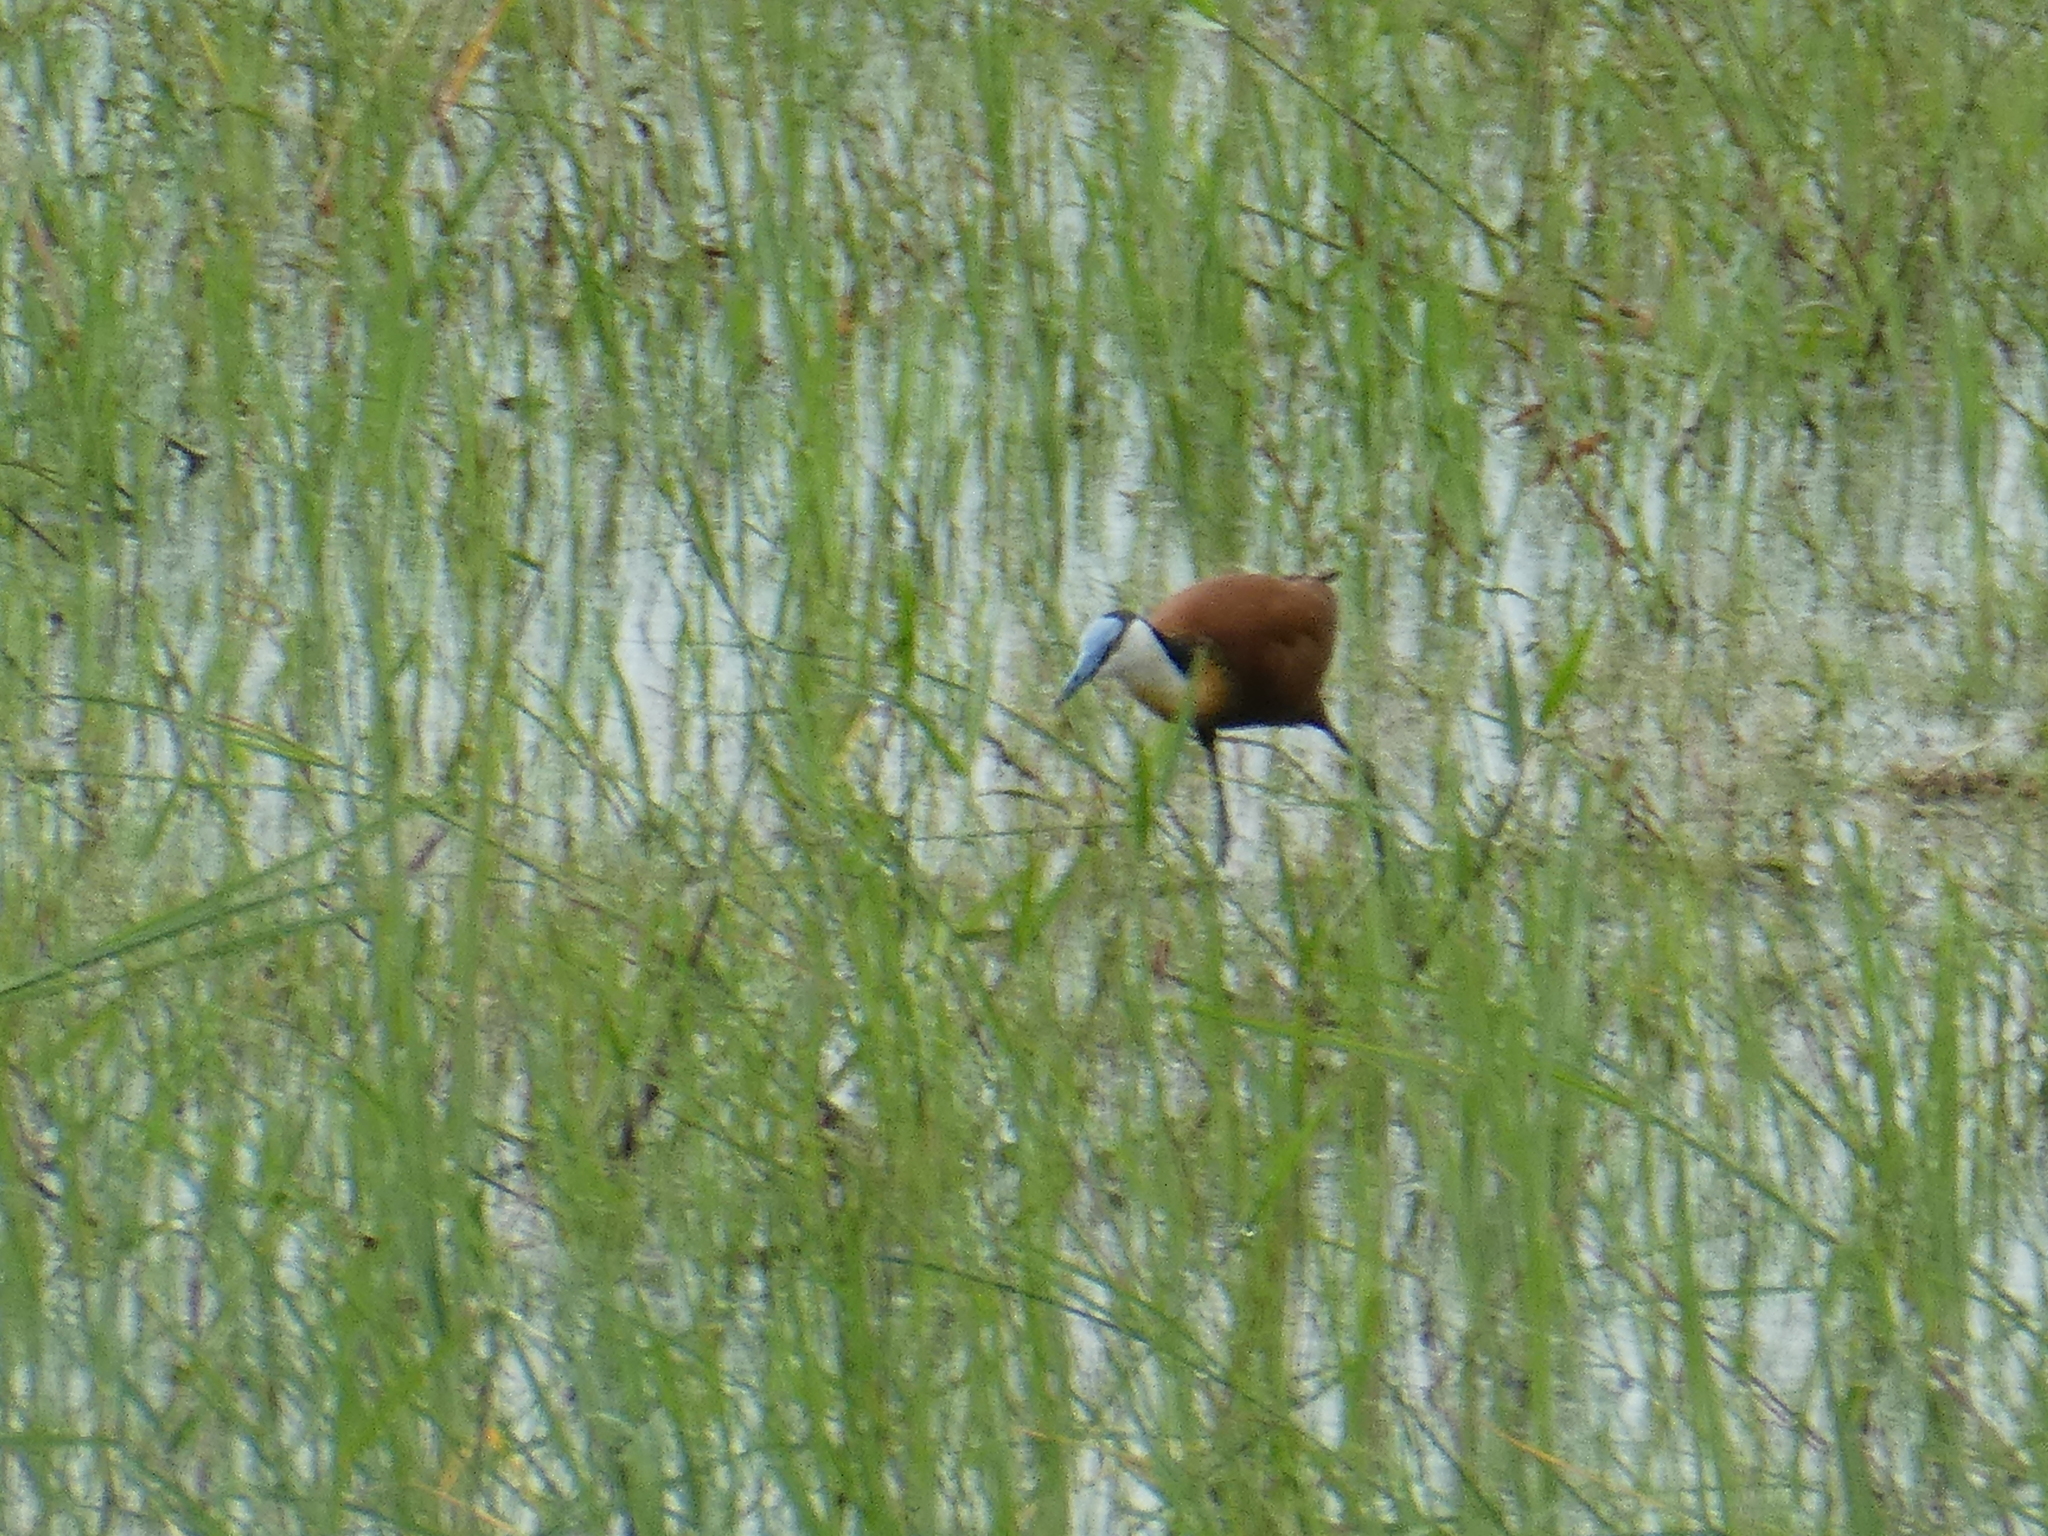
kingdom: Animalia
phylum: Chordata
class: Aves
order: Charadriiformes
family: Jacanidae
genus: Actophilornis
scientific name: Actophilornis africanus
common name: African jacana
